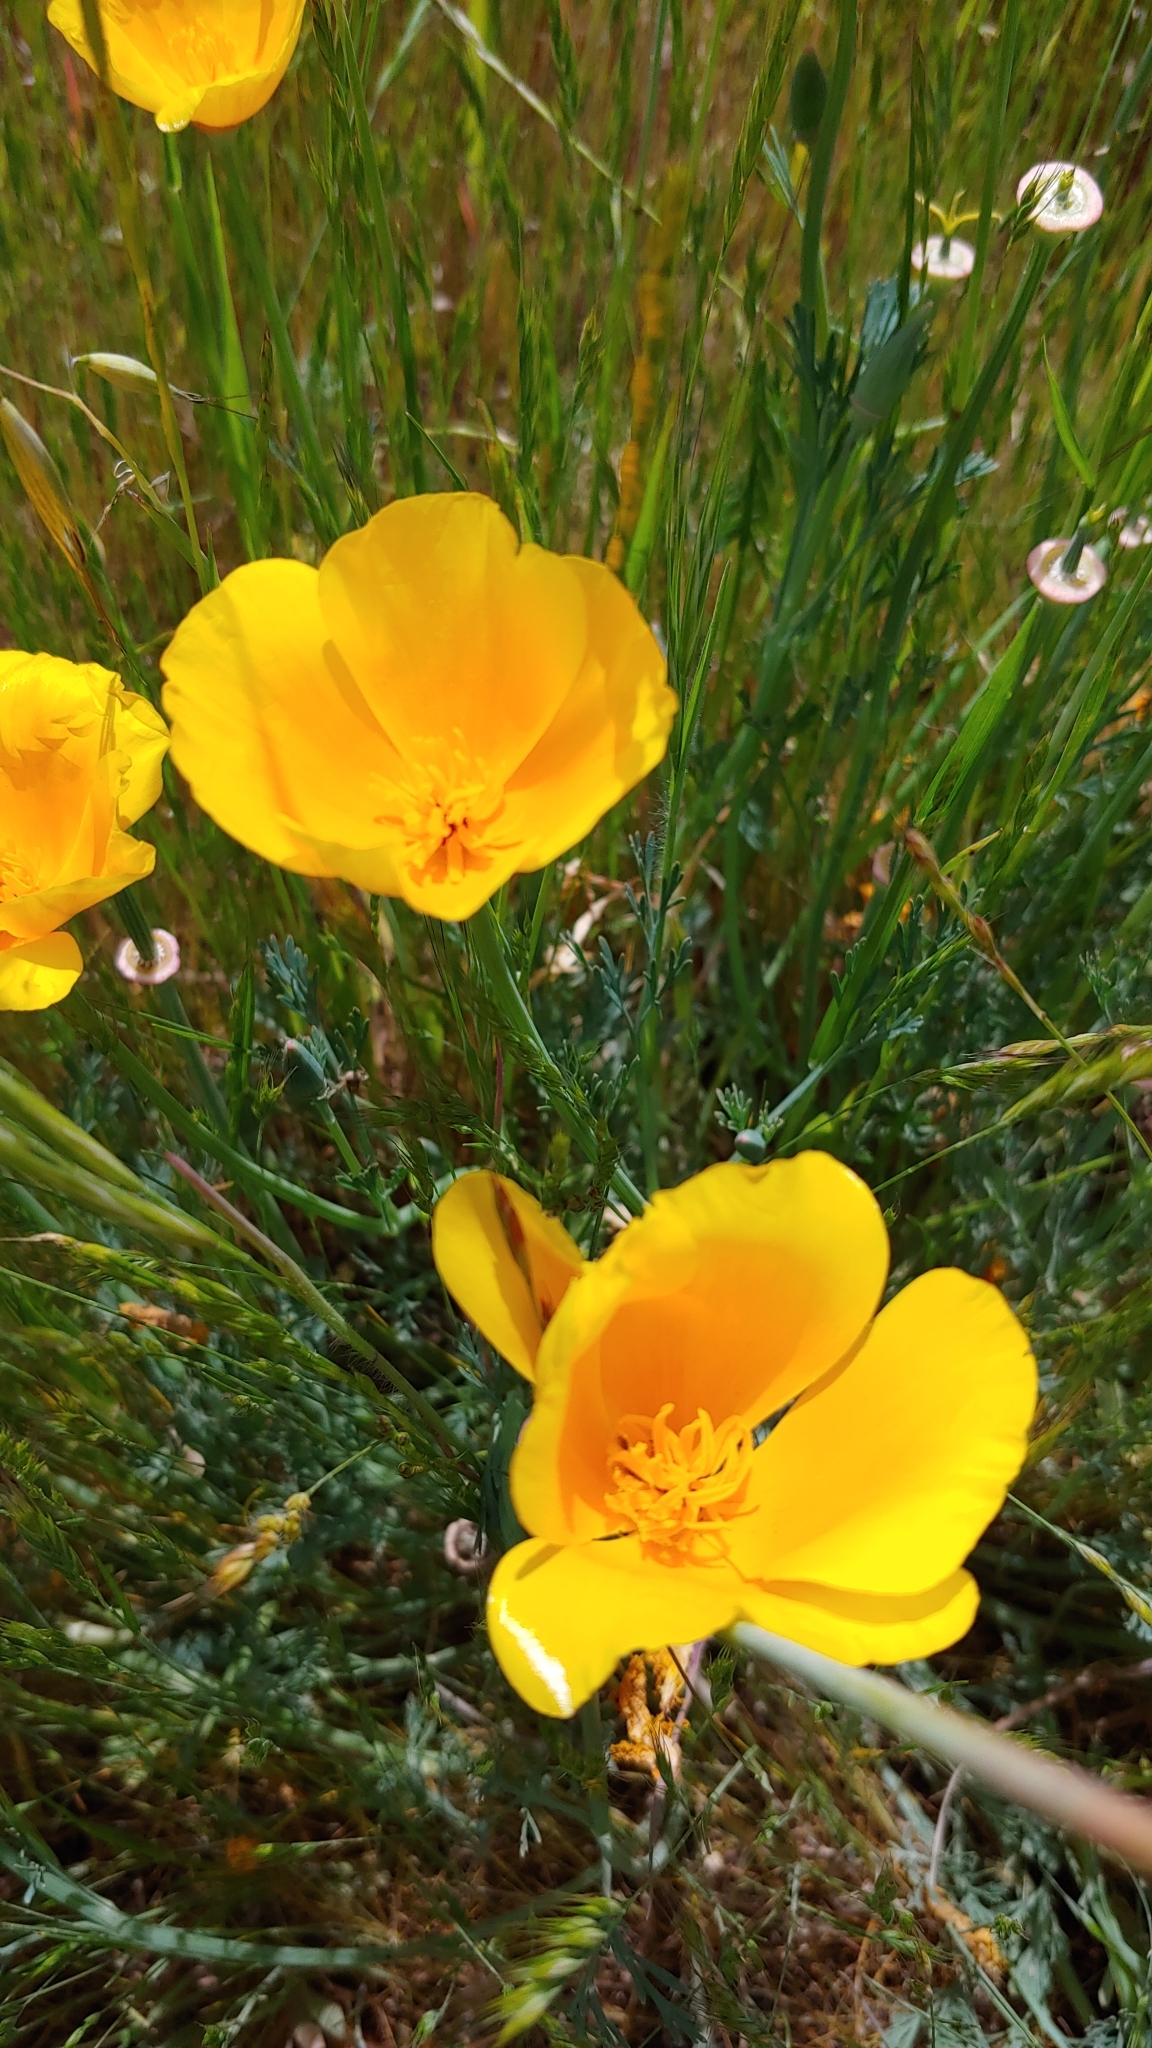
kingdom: Plantae
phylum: Tracheophyta
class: Magnoliopsida
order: Ranunculales
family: Papaveraceae
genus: Eschscholzia
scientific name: Eschscholzia californica
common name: California poppy
